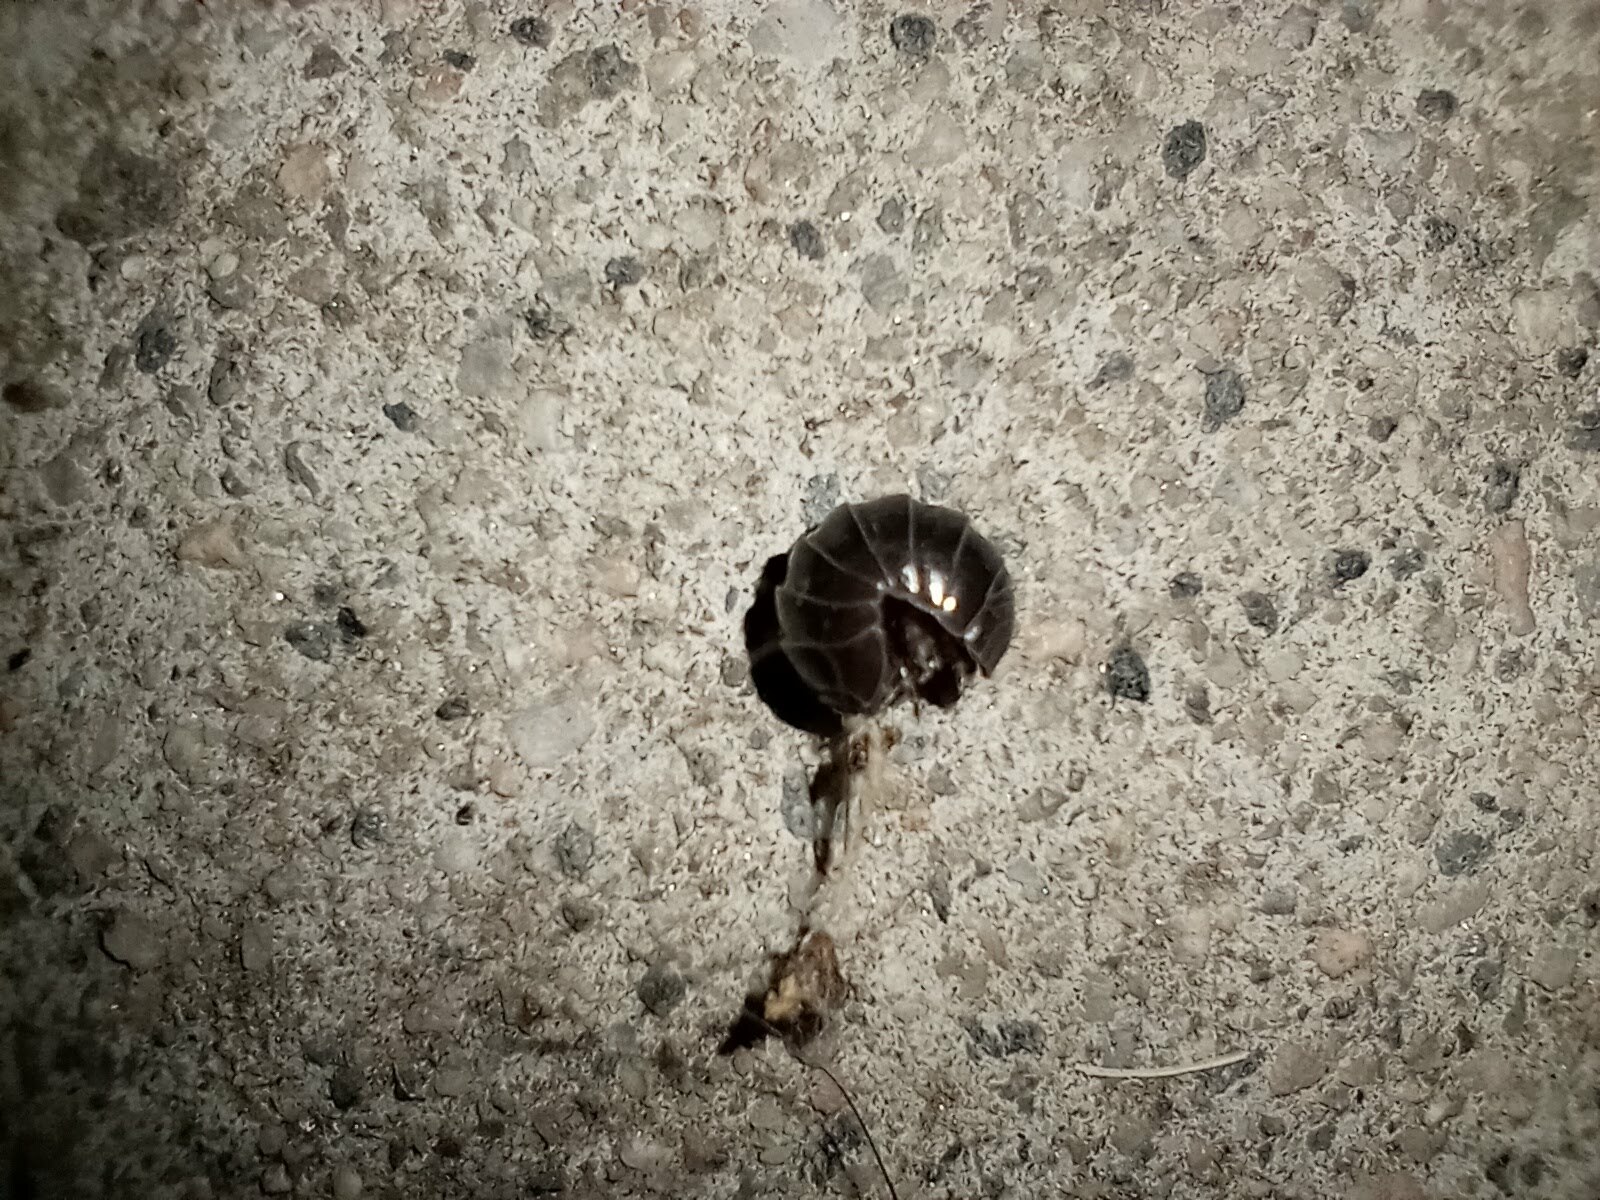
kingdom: Animalia
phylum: Arthropoda
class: Malacostraca
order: Isopoda
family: Armadillidiidae
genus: Armadillidium
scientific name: Armadillidium vulgare
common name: Common pill woodlouse
